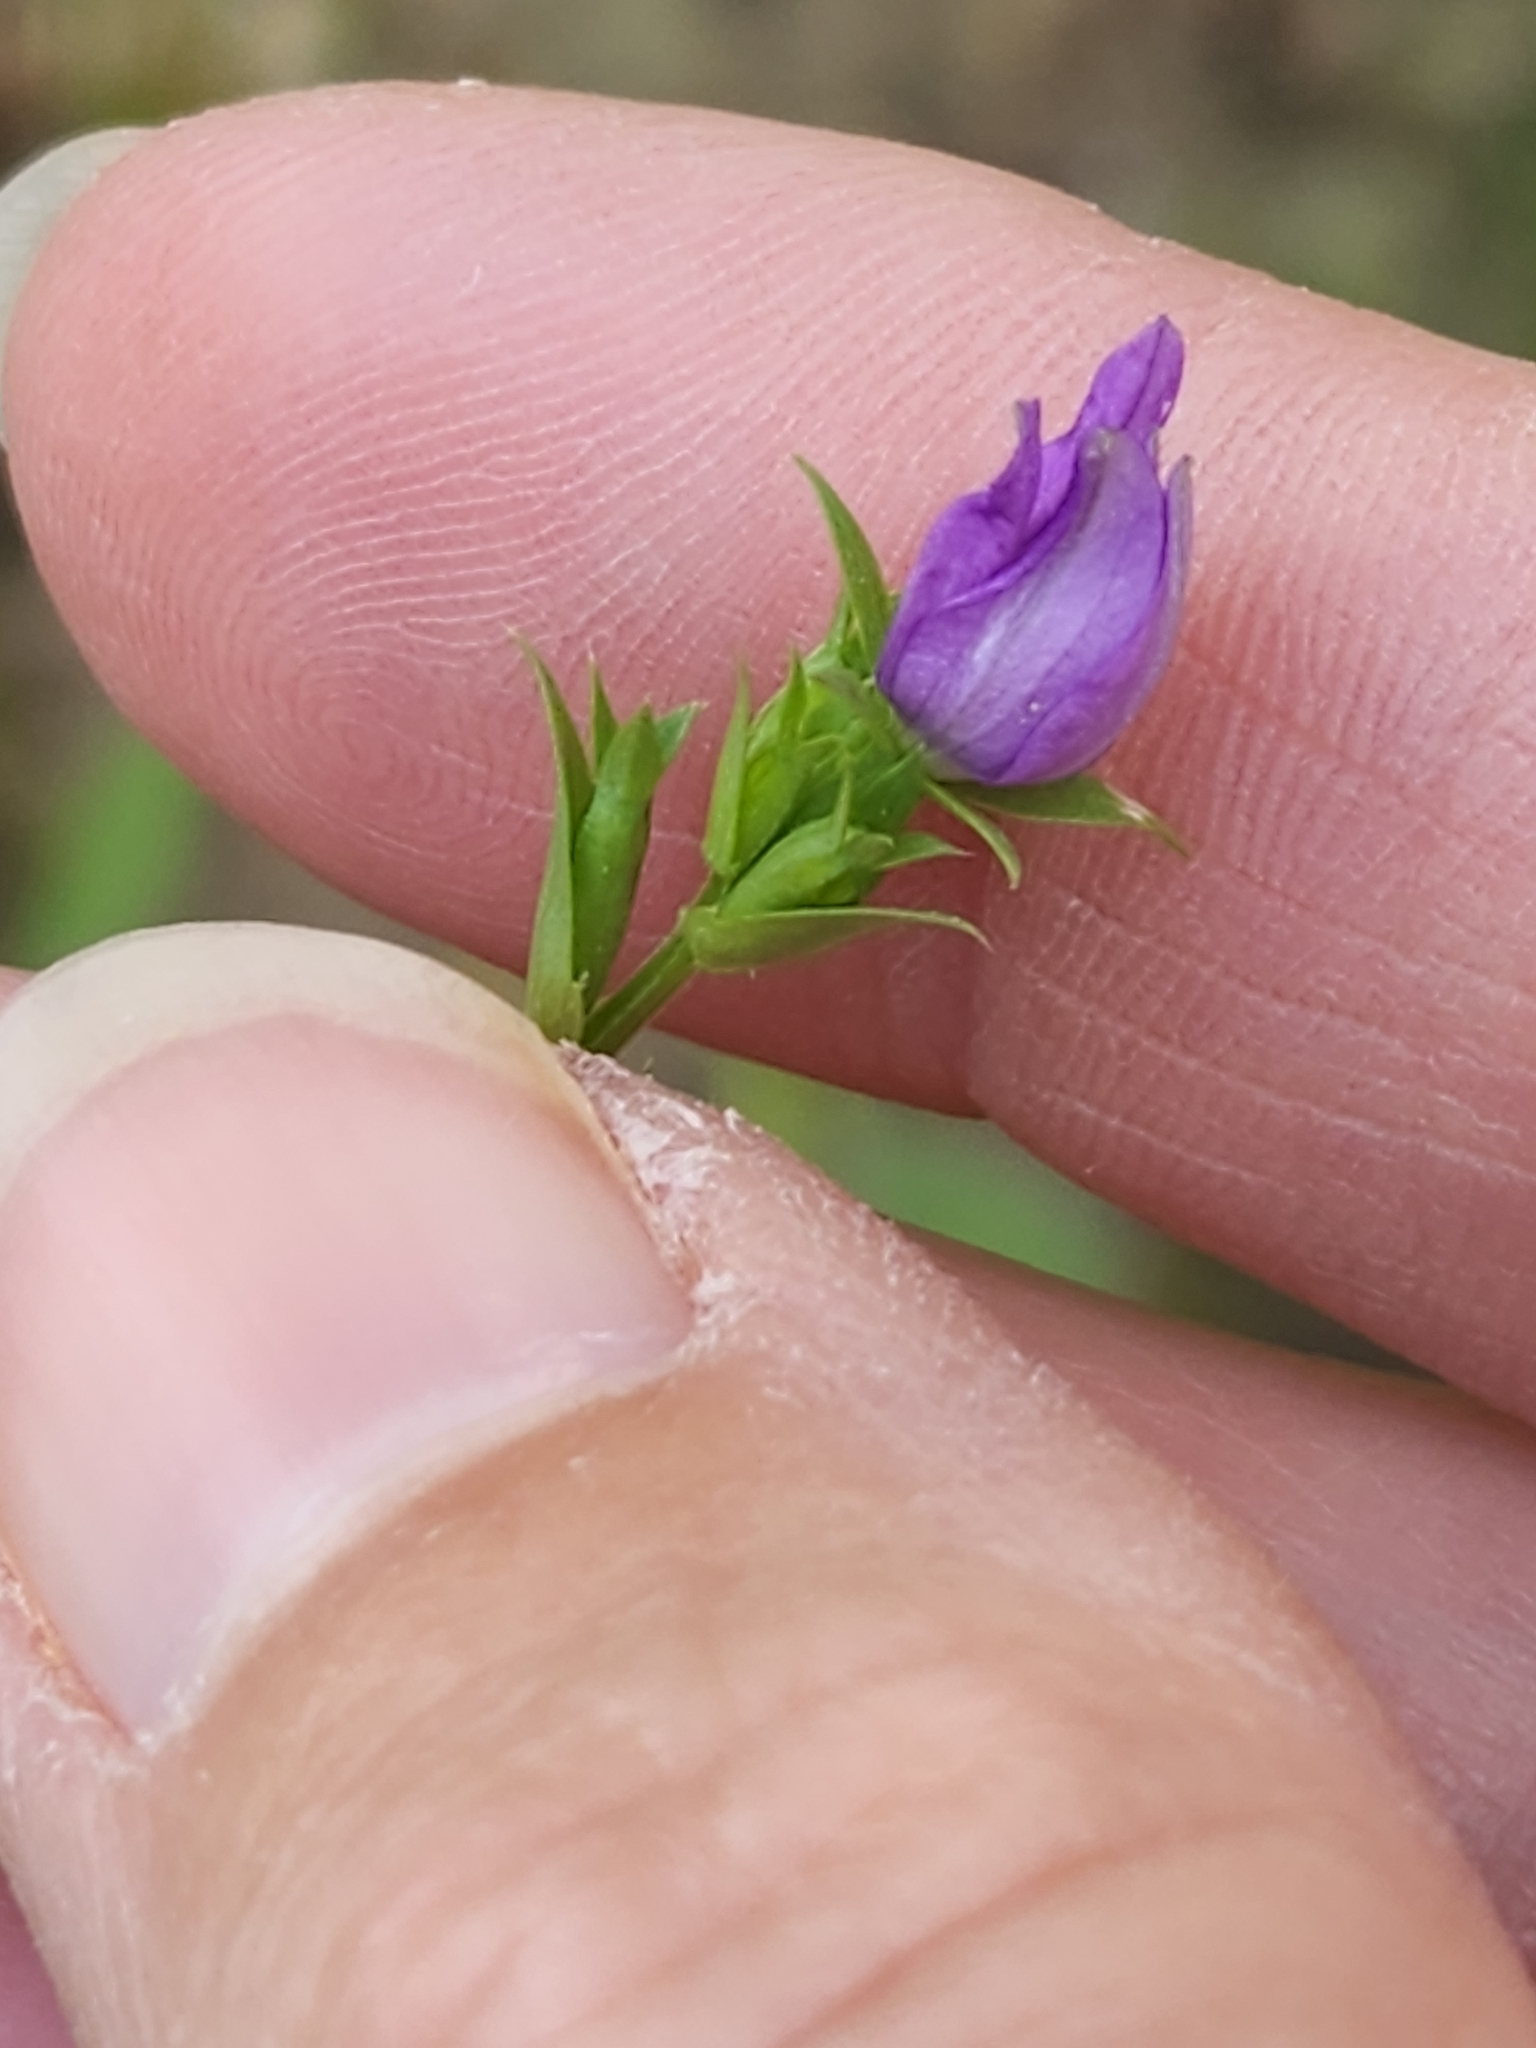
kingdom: Plantae
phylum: Tracheophyta
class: Magnoliopsida
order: Asterales
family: Campanulaceae
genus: Triodanis
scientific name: Triodanis biflora
